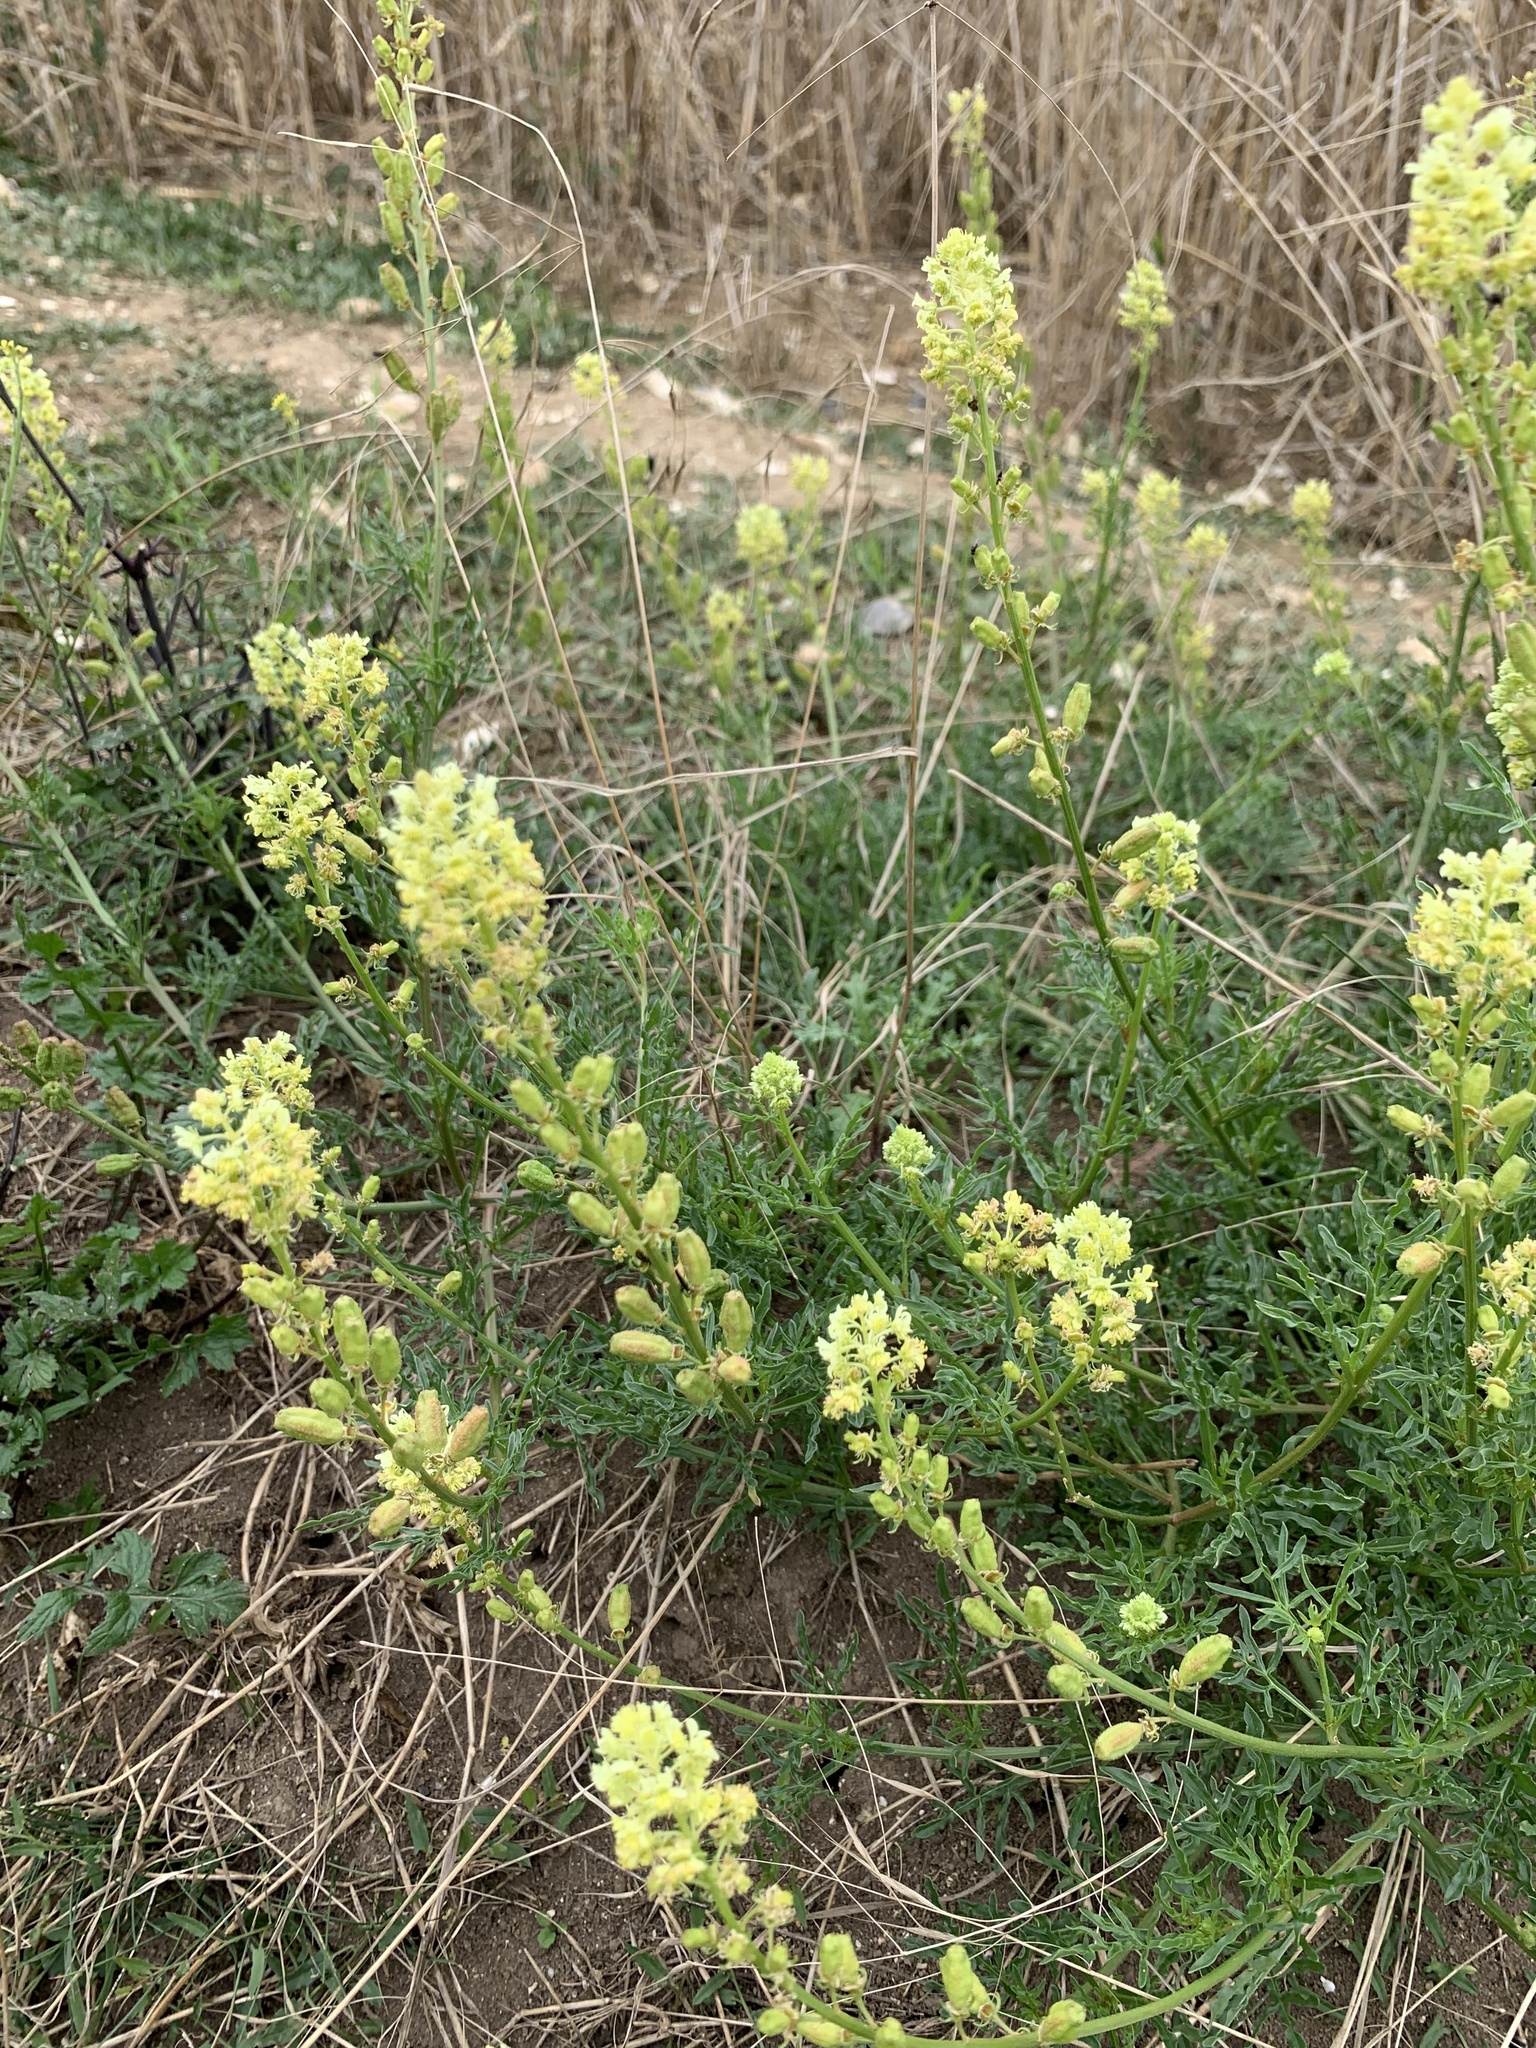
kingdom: Plantae
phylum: Tracheophyta
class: Magnoliopsida
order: Brassicales
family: Resedaceae
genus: Reseda
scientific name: Reseda lutea
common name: Wild mignonette
